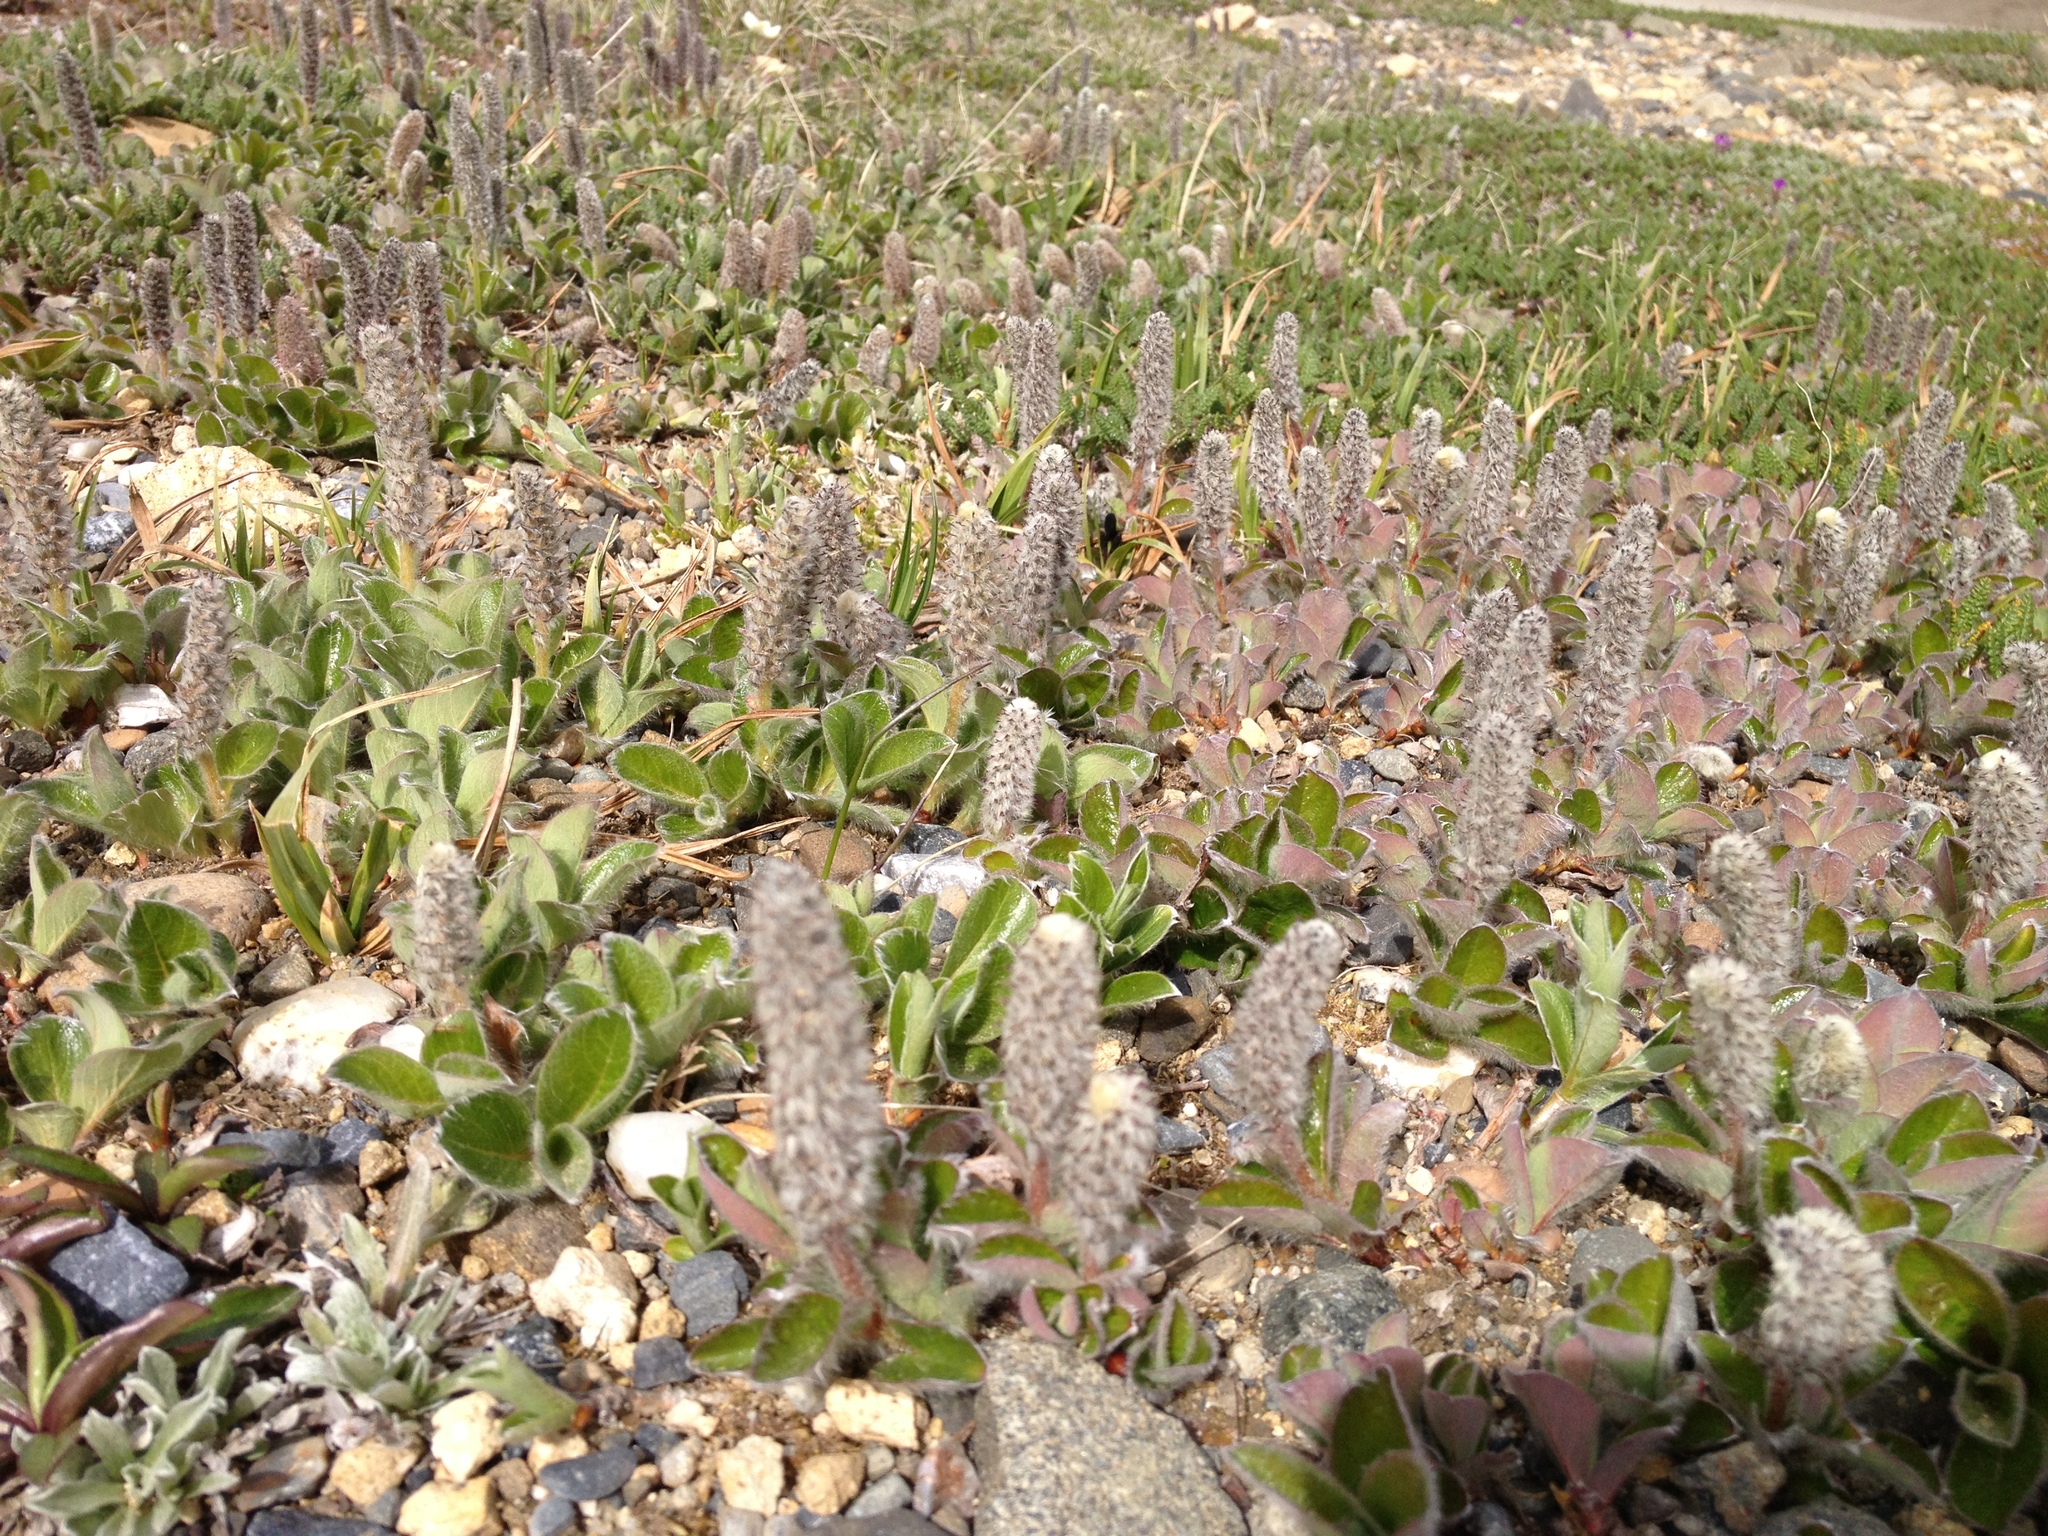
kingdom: Plantae
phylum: Tracheophyta
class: Magnoliopsida
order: Malpighiales
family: Salicaceae
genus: Salix
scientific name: Salix arctica
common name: Arctic willow
